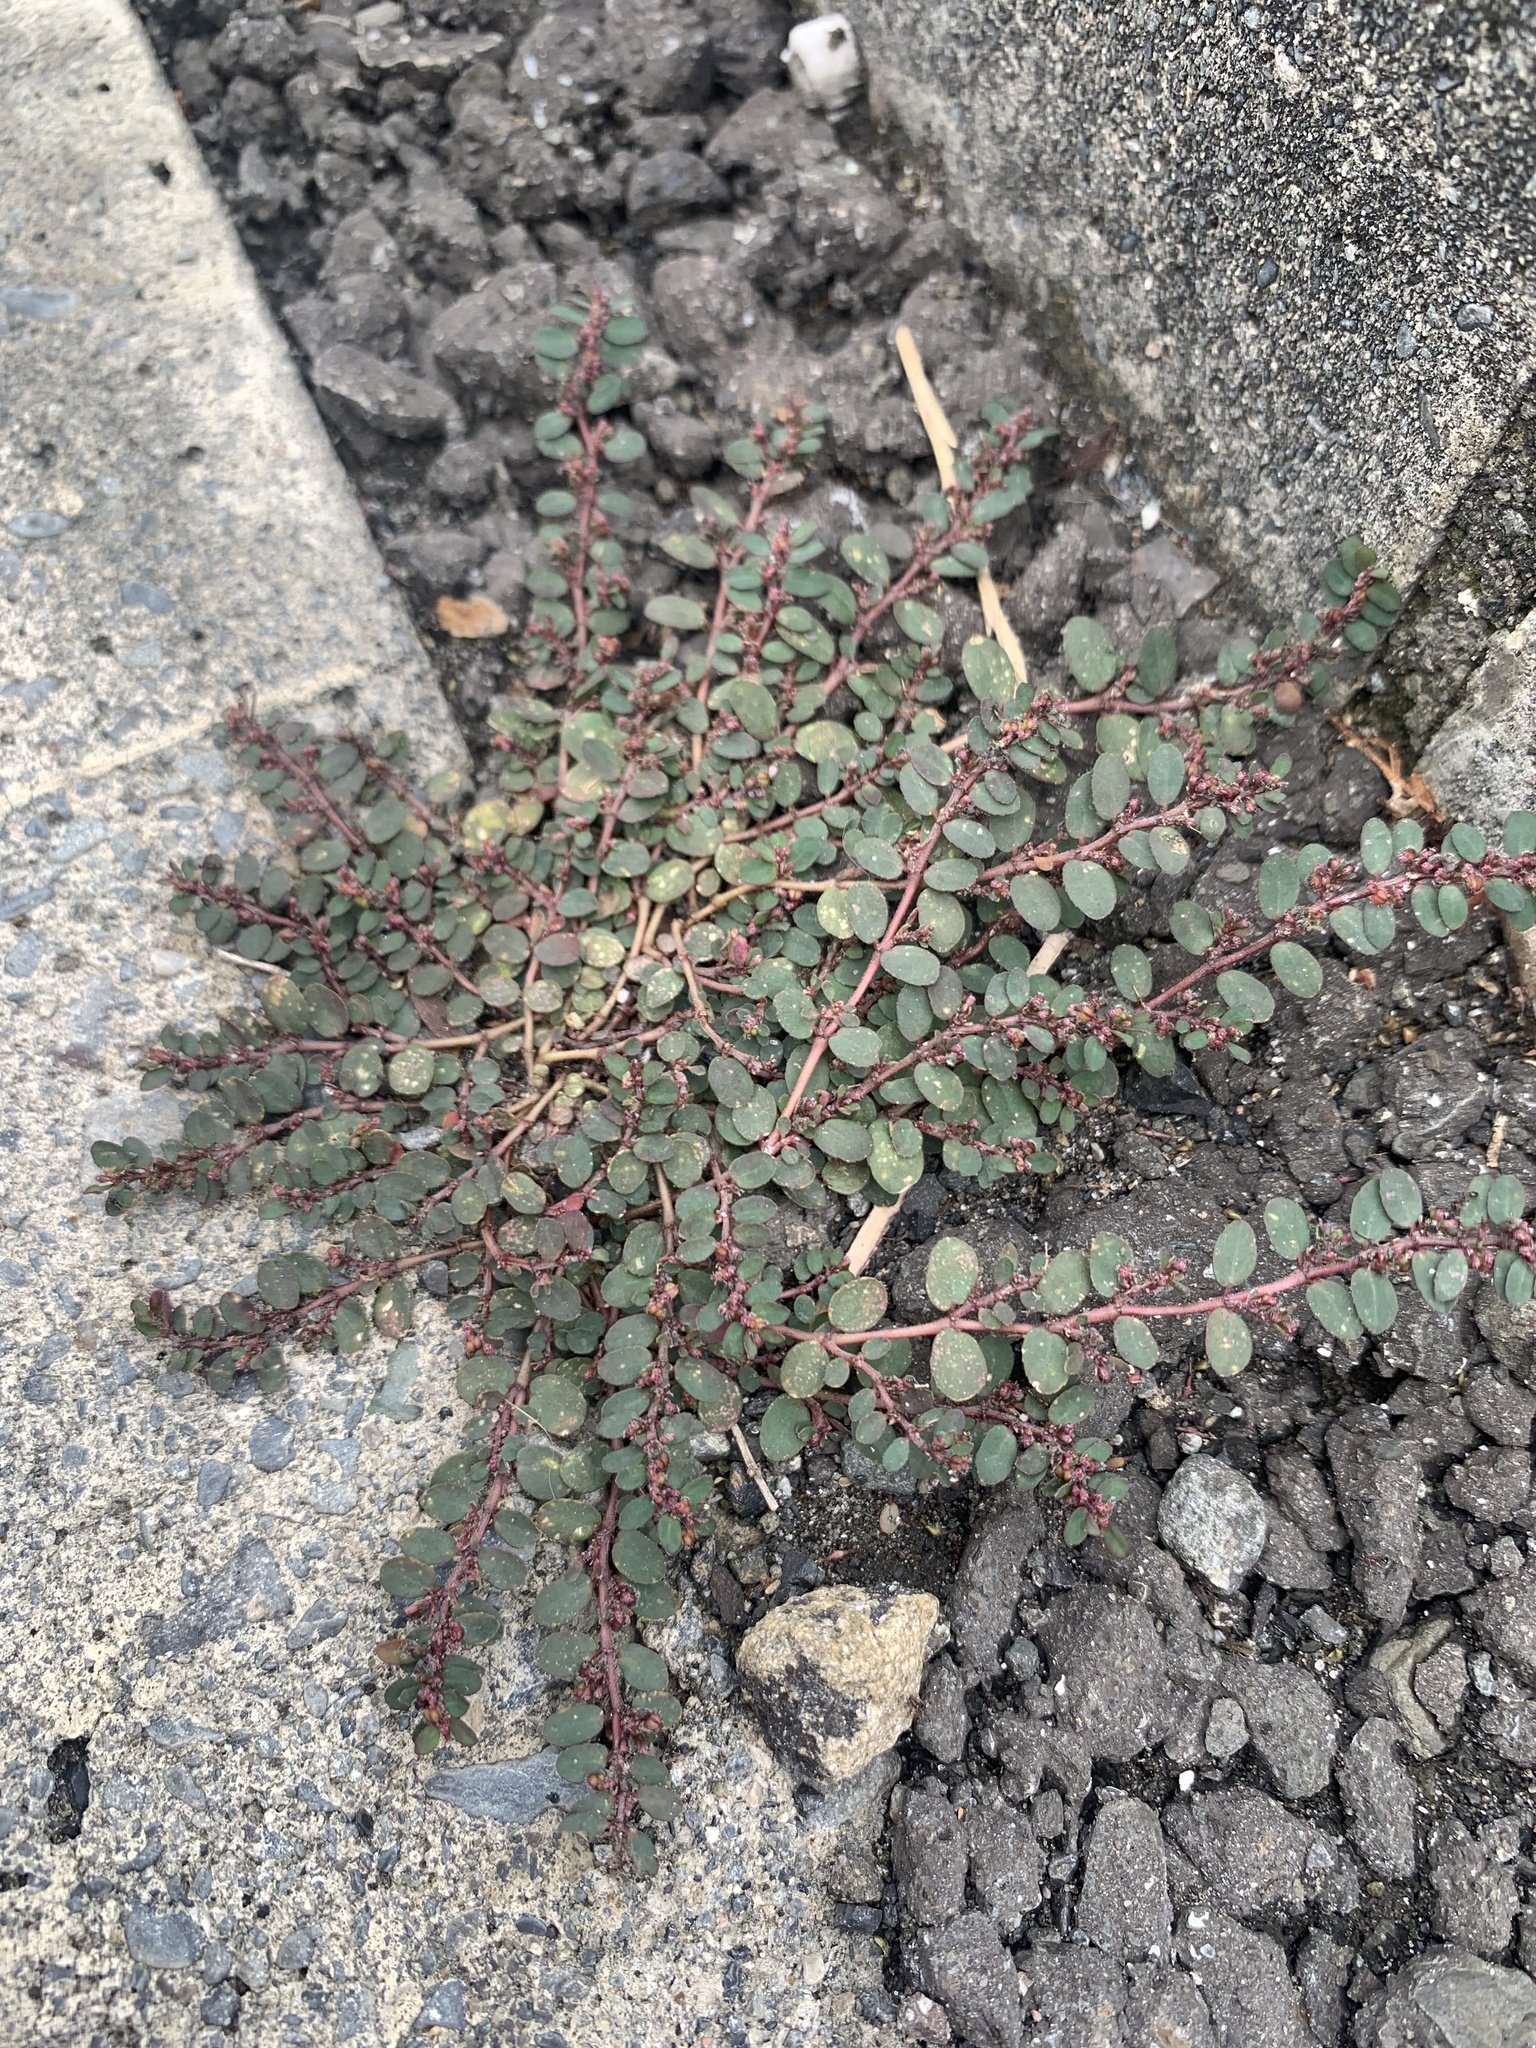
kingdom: Plantae
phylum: Tracheophyta
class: Magnoliopsida
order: Malpighiales
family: Euphorbiaceae
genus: Euphorbia
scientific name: Euphorbia prostrata
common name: Prostrate sandmat
